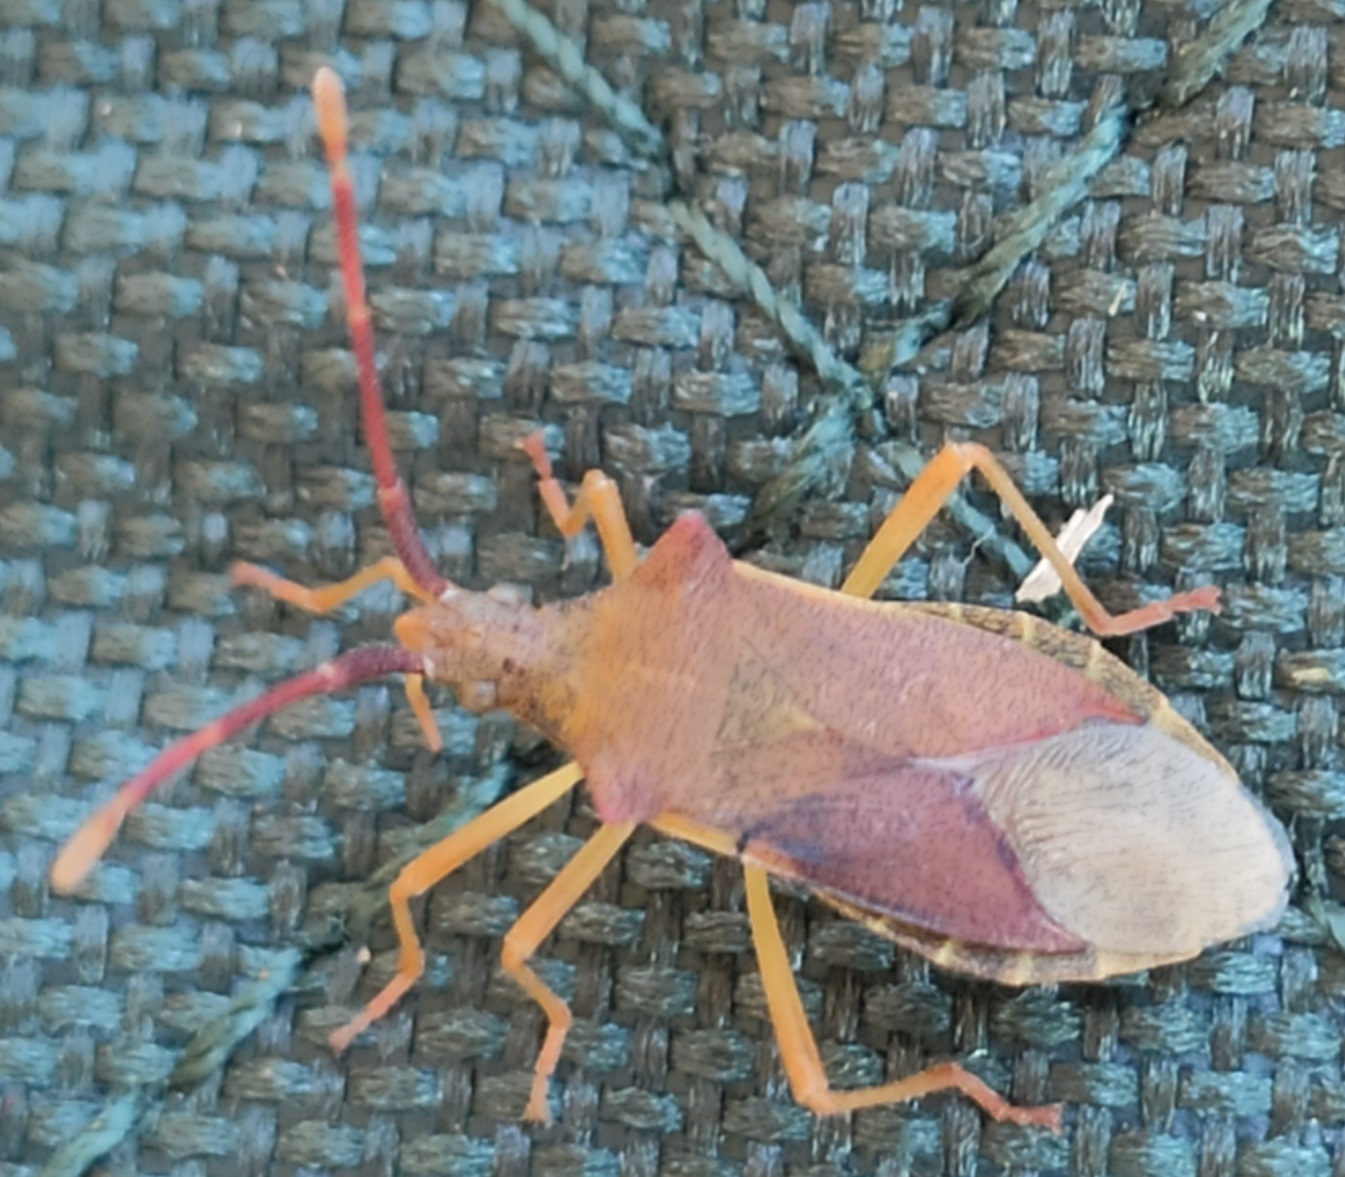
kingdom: Animalia
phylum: Arthropoda
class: Insecta
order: Hemiptera
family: Coreidae
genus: Gonocerus
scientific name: Gonocerus acuteangulatus
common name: Box bug
